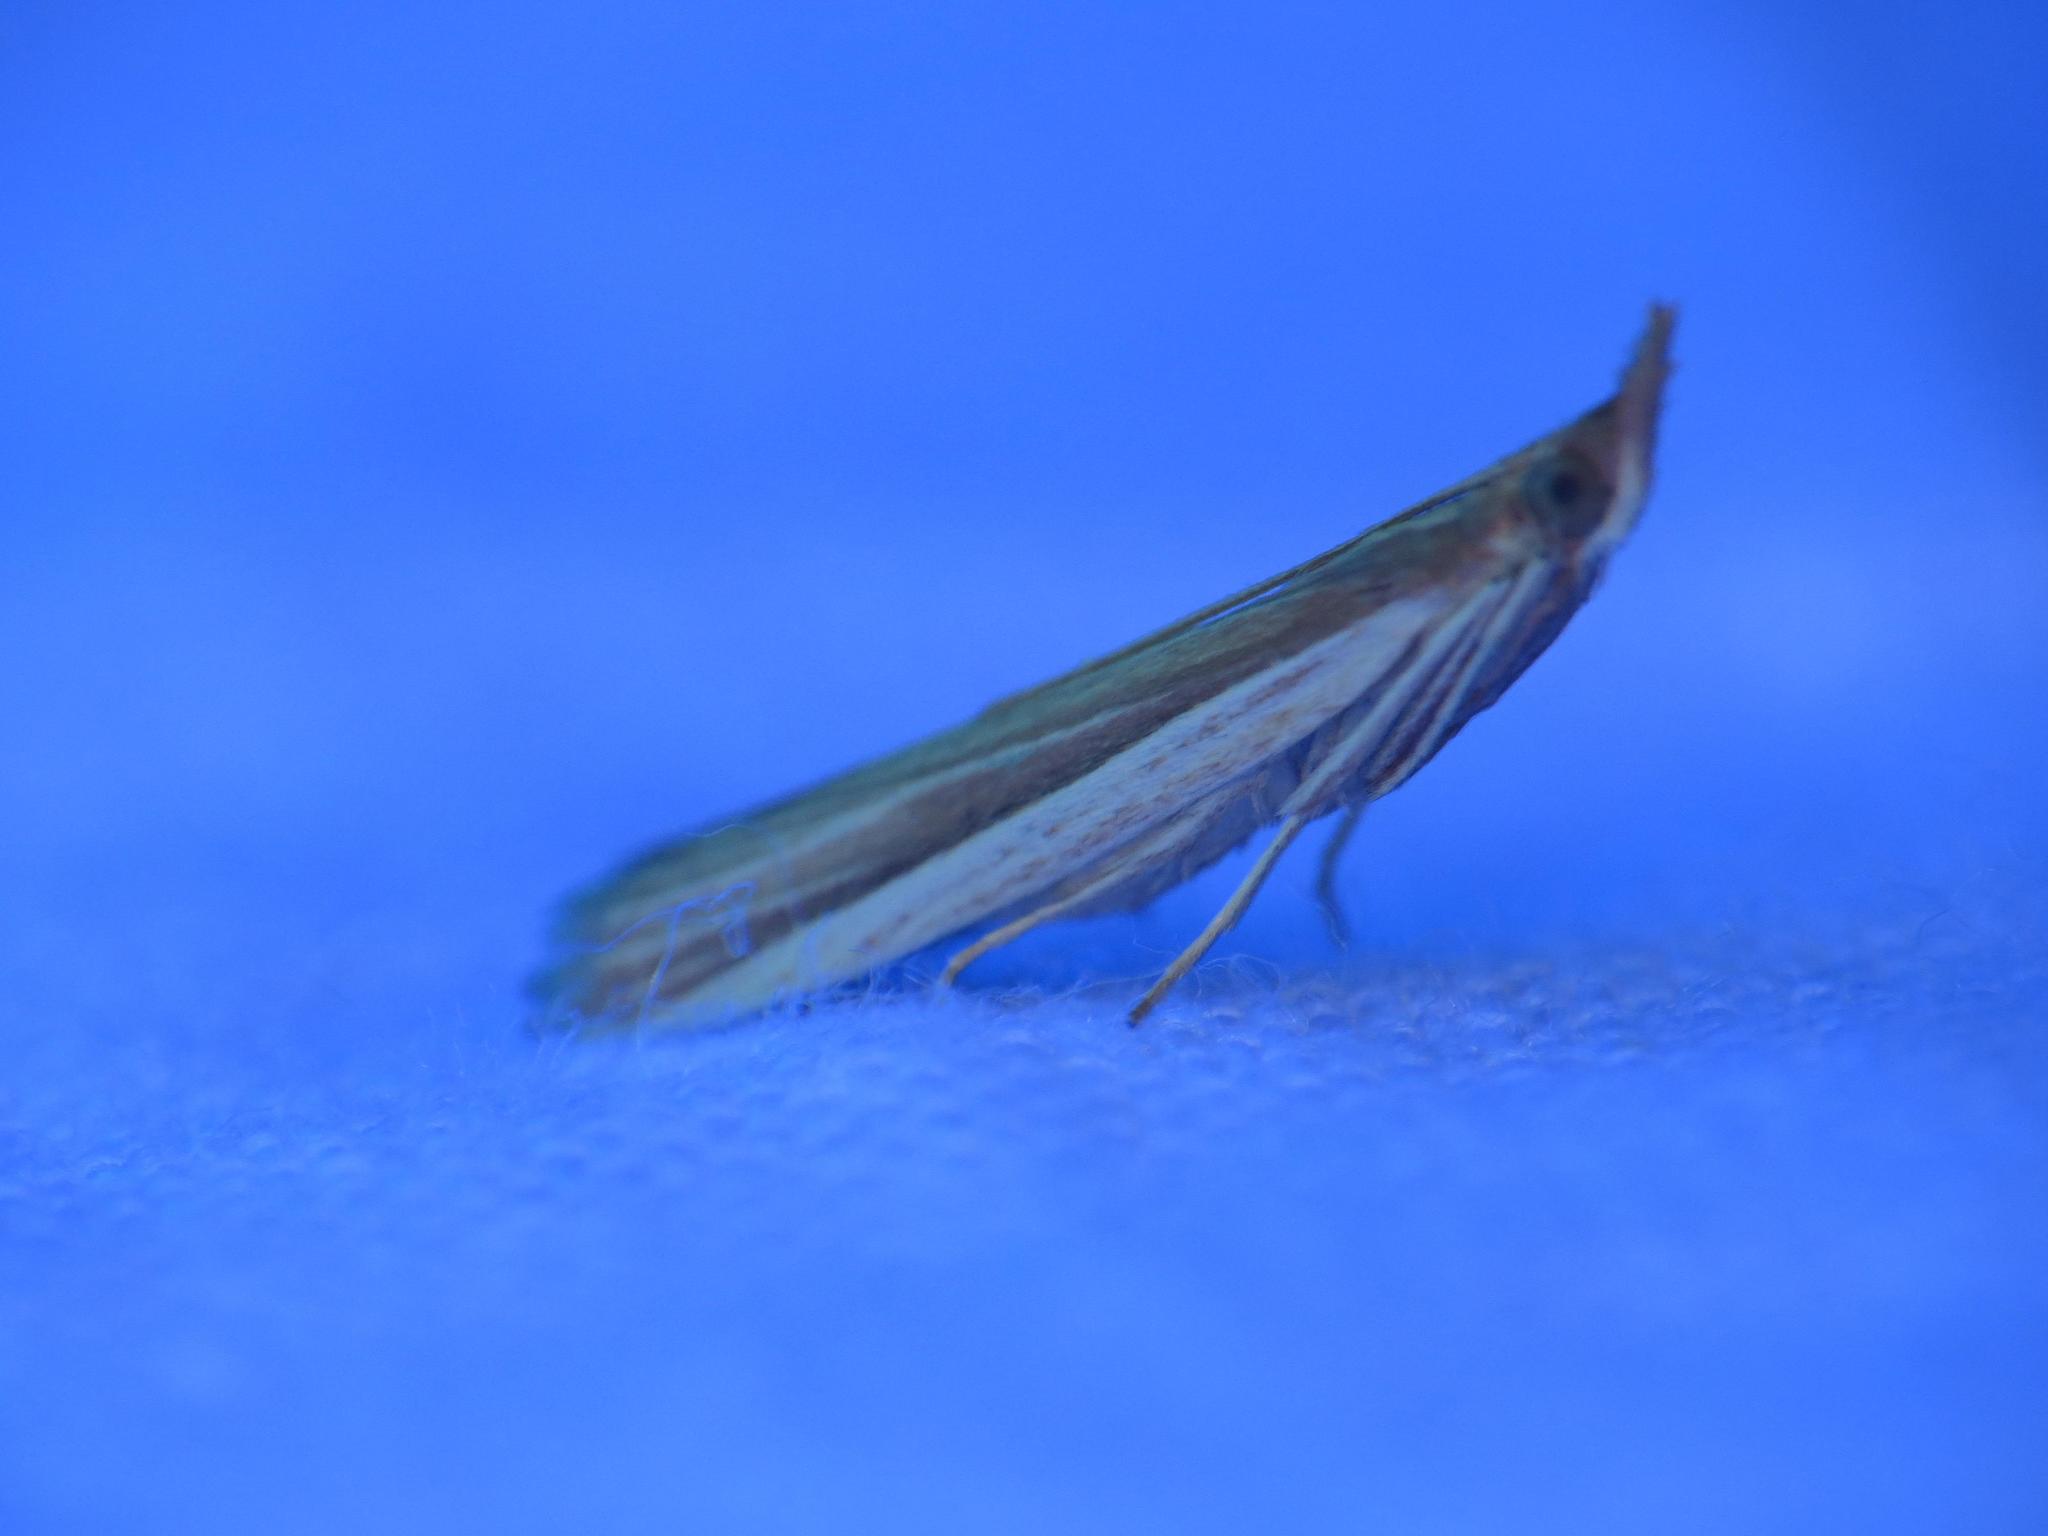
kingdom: Animalia
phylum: Arthropoda
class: Insecta
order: Lepidoptera
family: Pyralidae
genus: Emmalocera
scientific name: Emmalocera latilimbella
